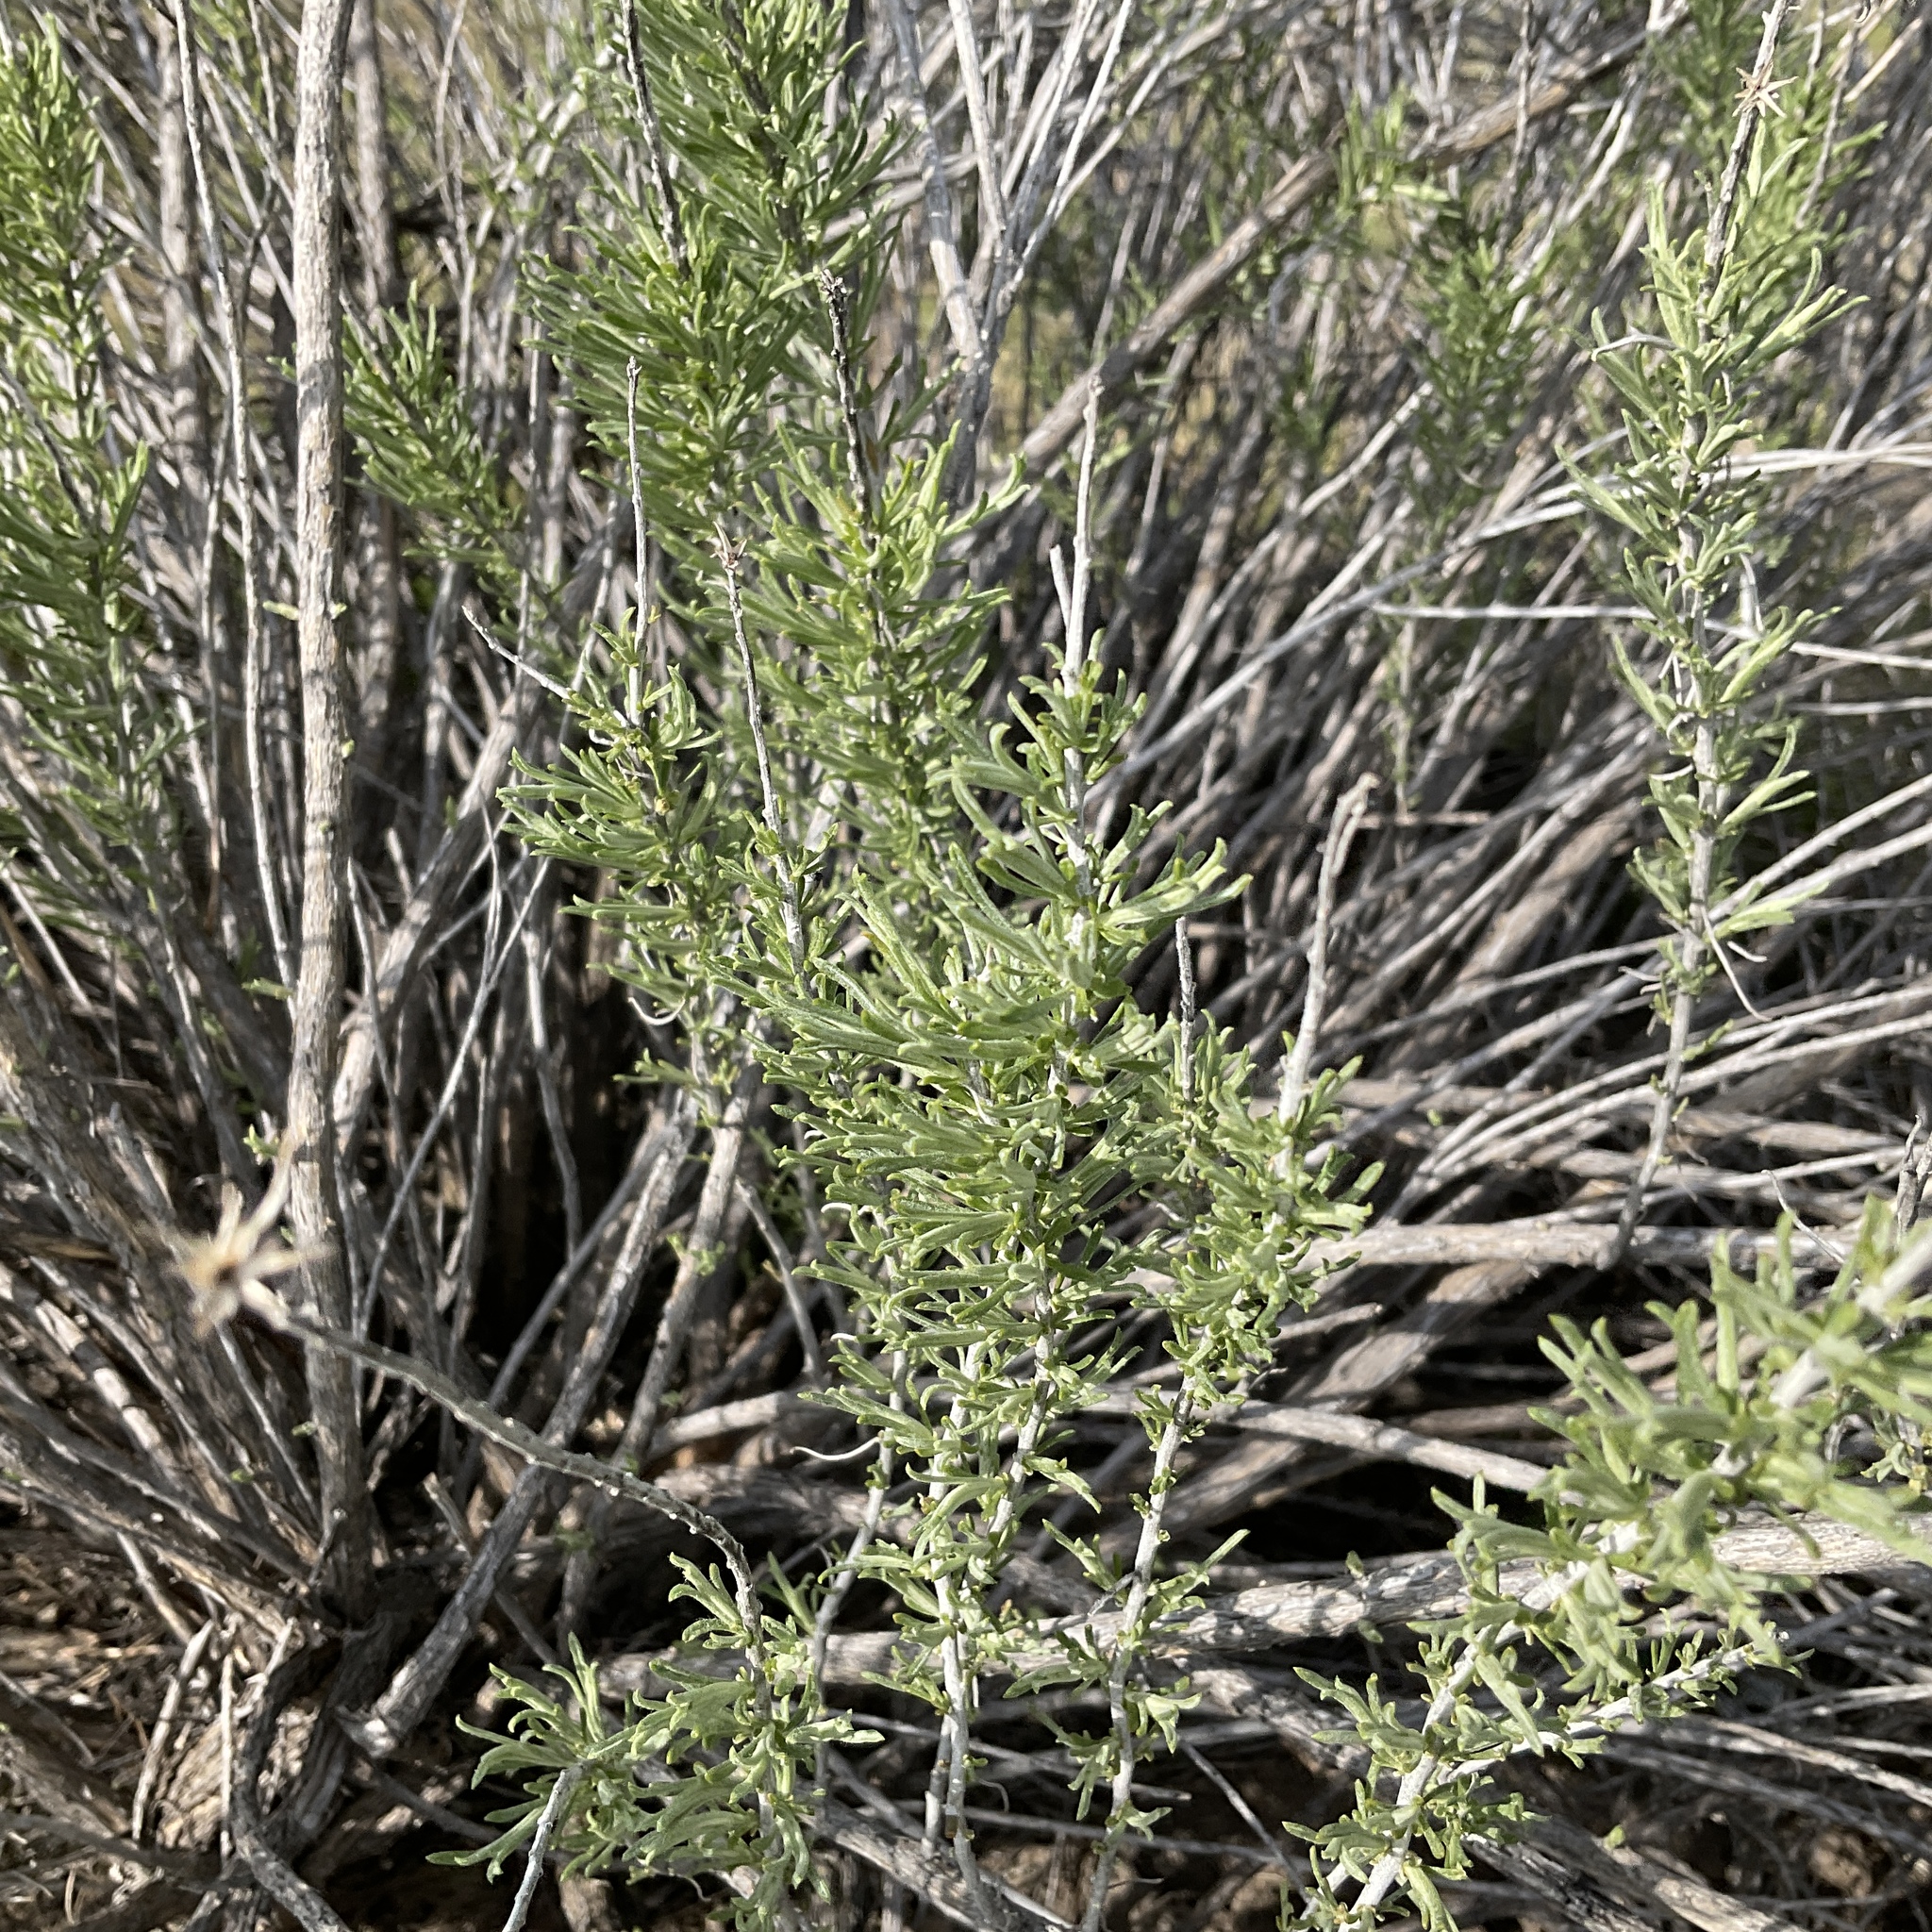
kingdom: Plantae
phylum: Tracheophyta
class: Magnoliopsida
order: Asterales
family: Asteraceae
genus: Ericameria
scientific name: Ericameria nauseosa
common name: Rubber rabbitbrush
